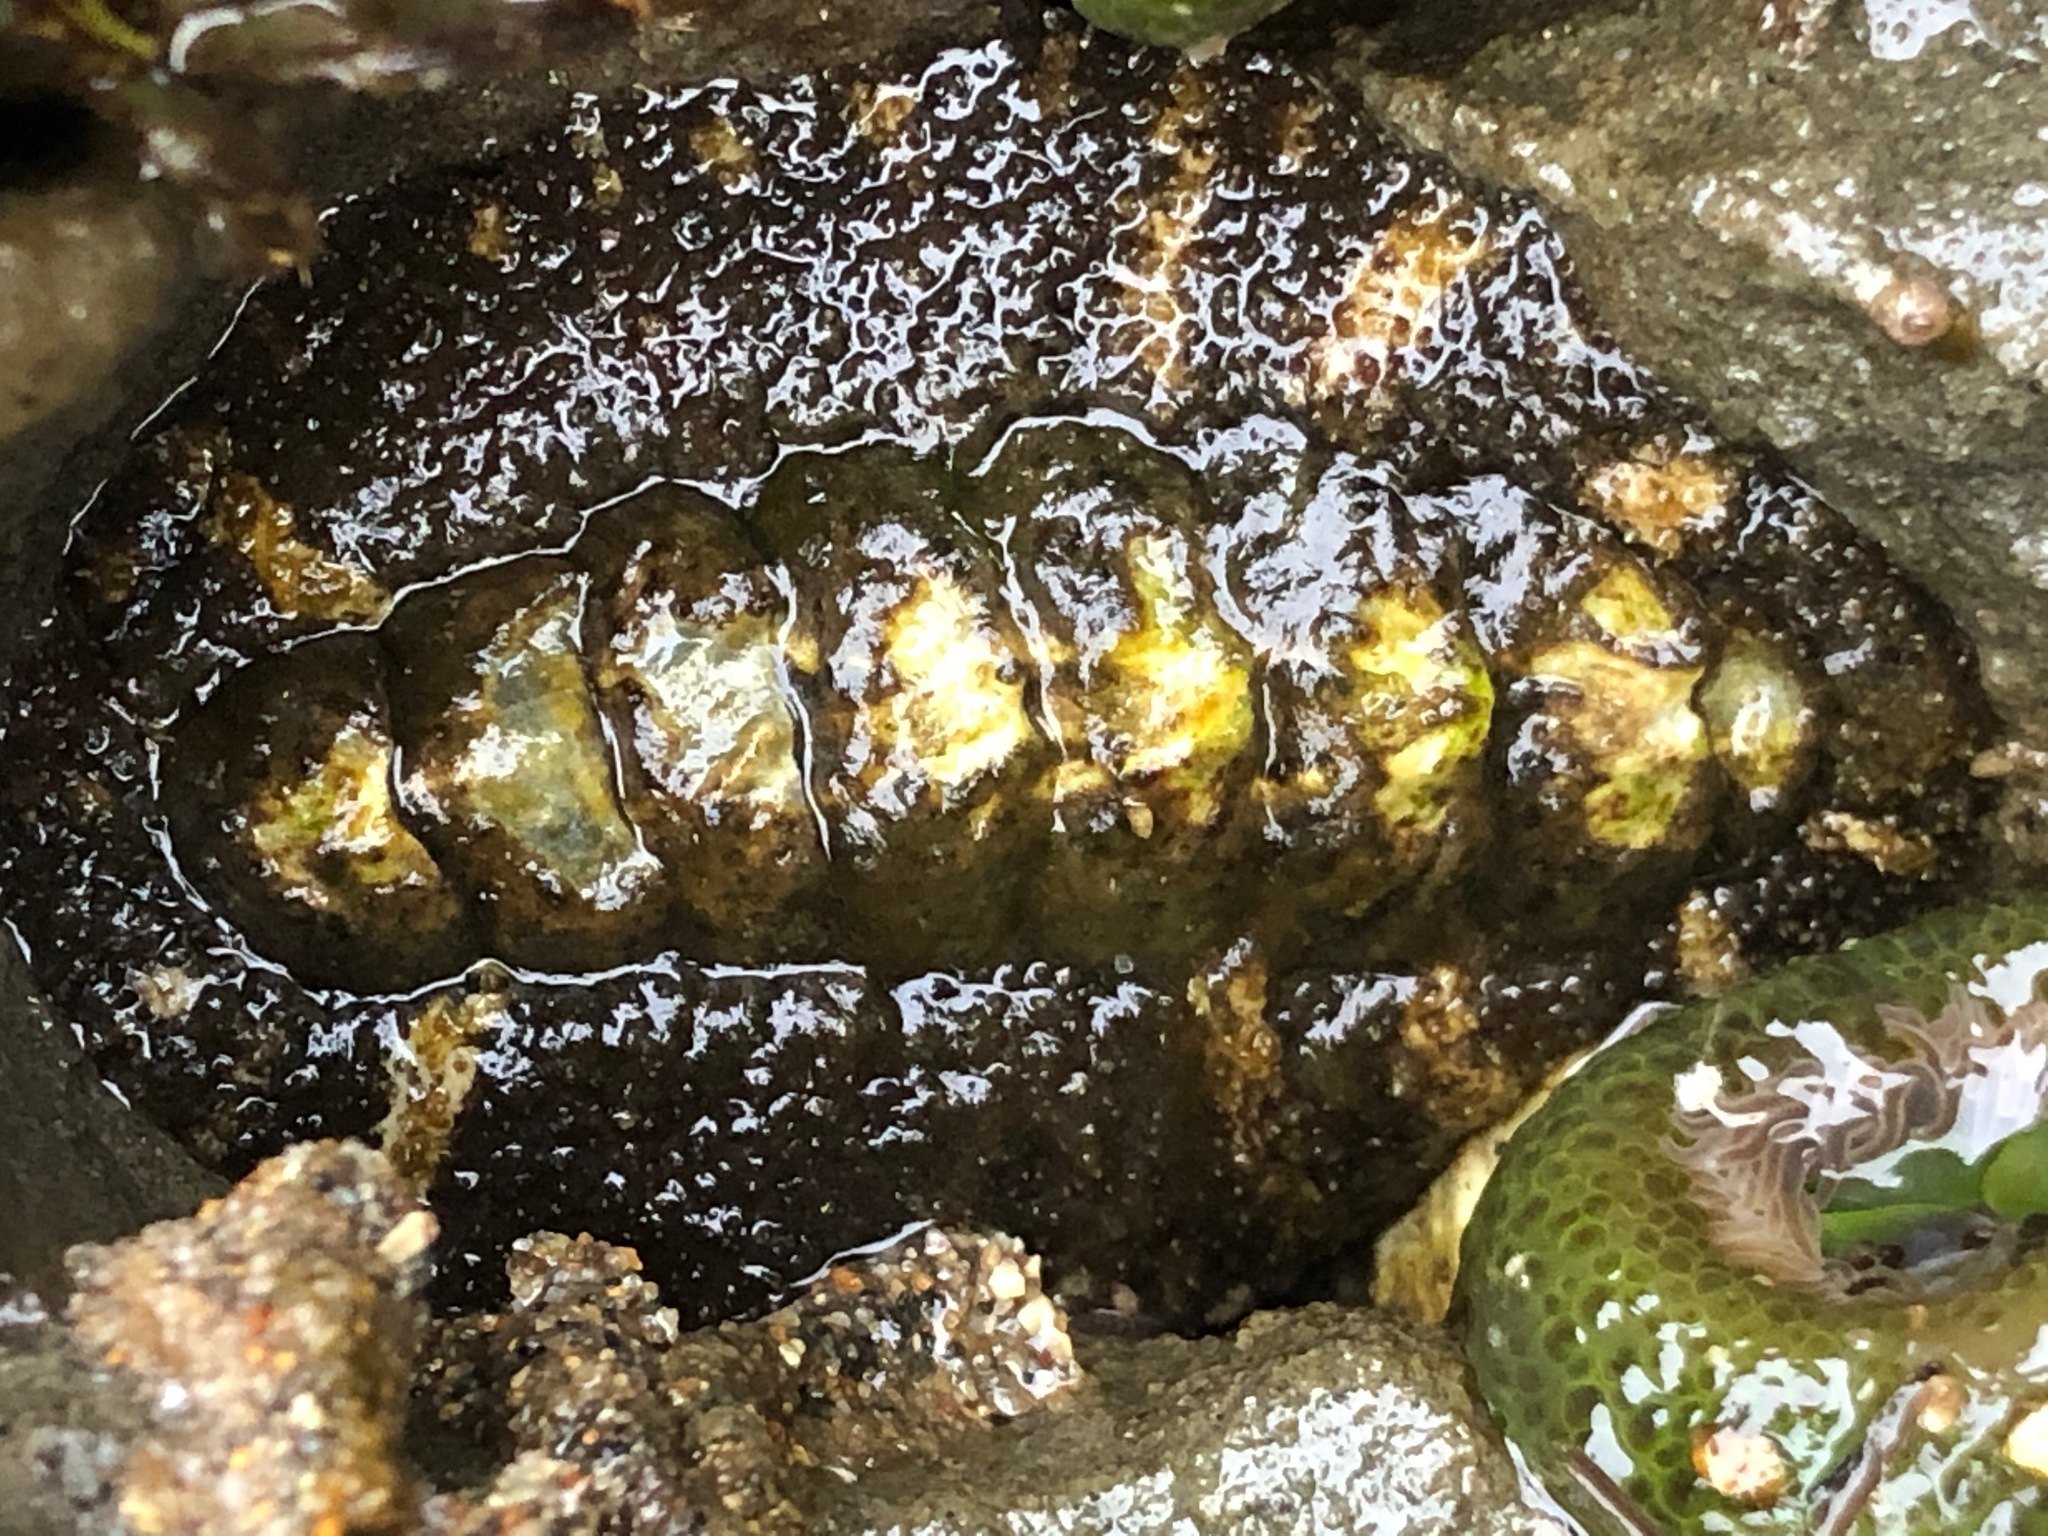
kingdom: Animalia
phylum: Mollusca
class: Polyplacophora
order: Chitonida
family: Tonicellidae
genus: Nuttallina
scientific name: Nuttallina californica
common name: California nuttall chiton
